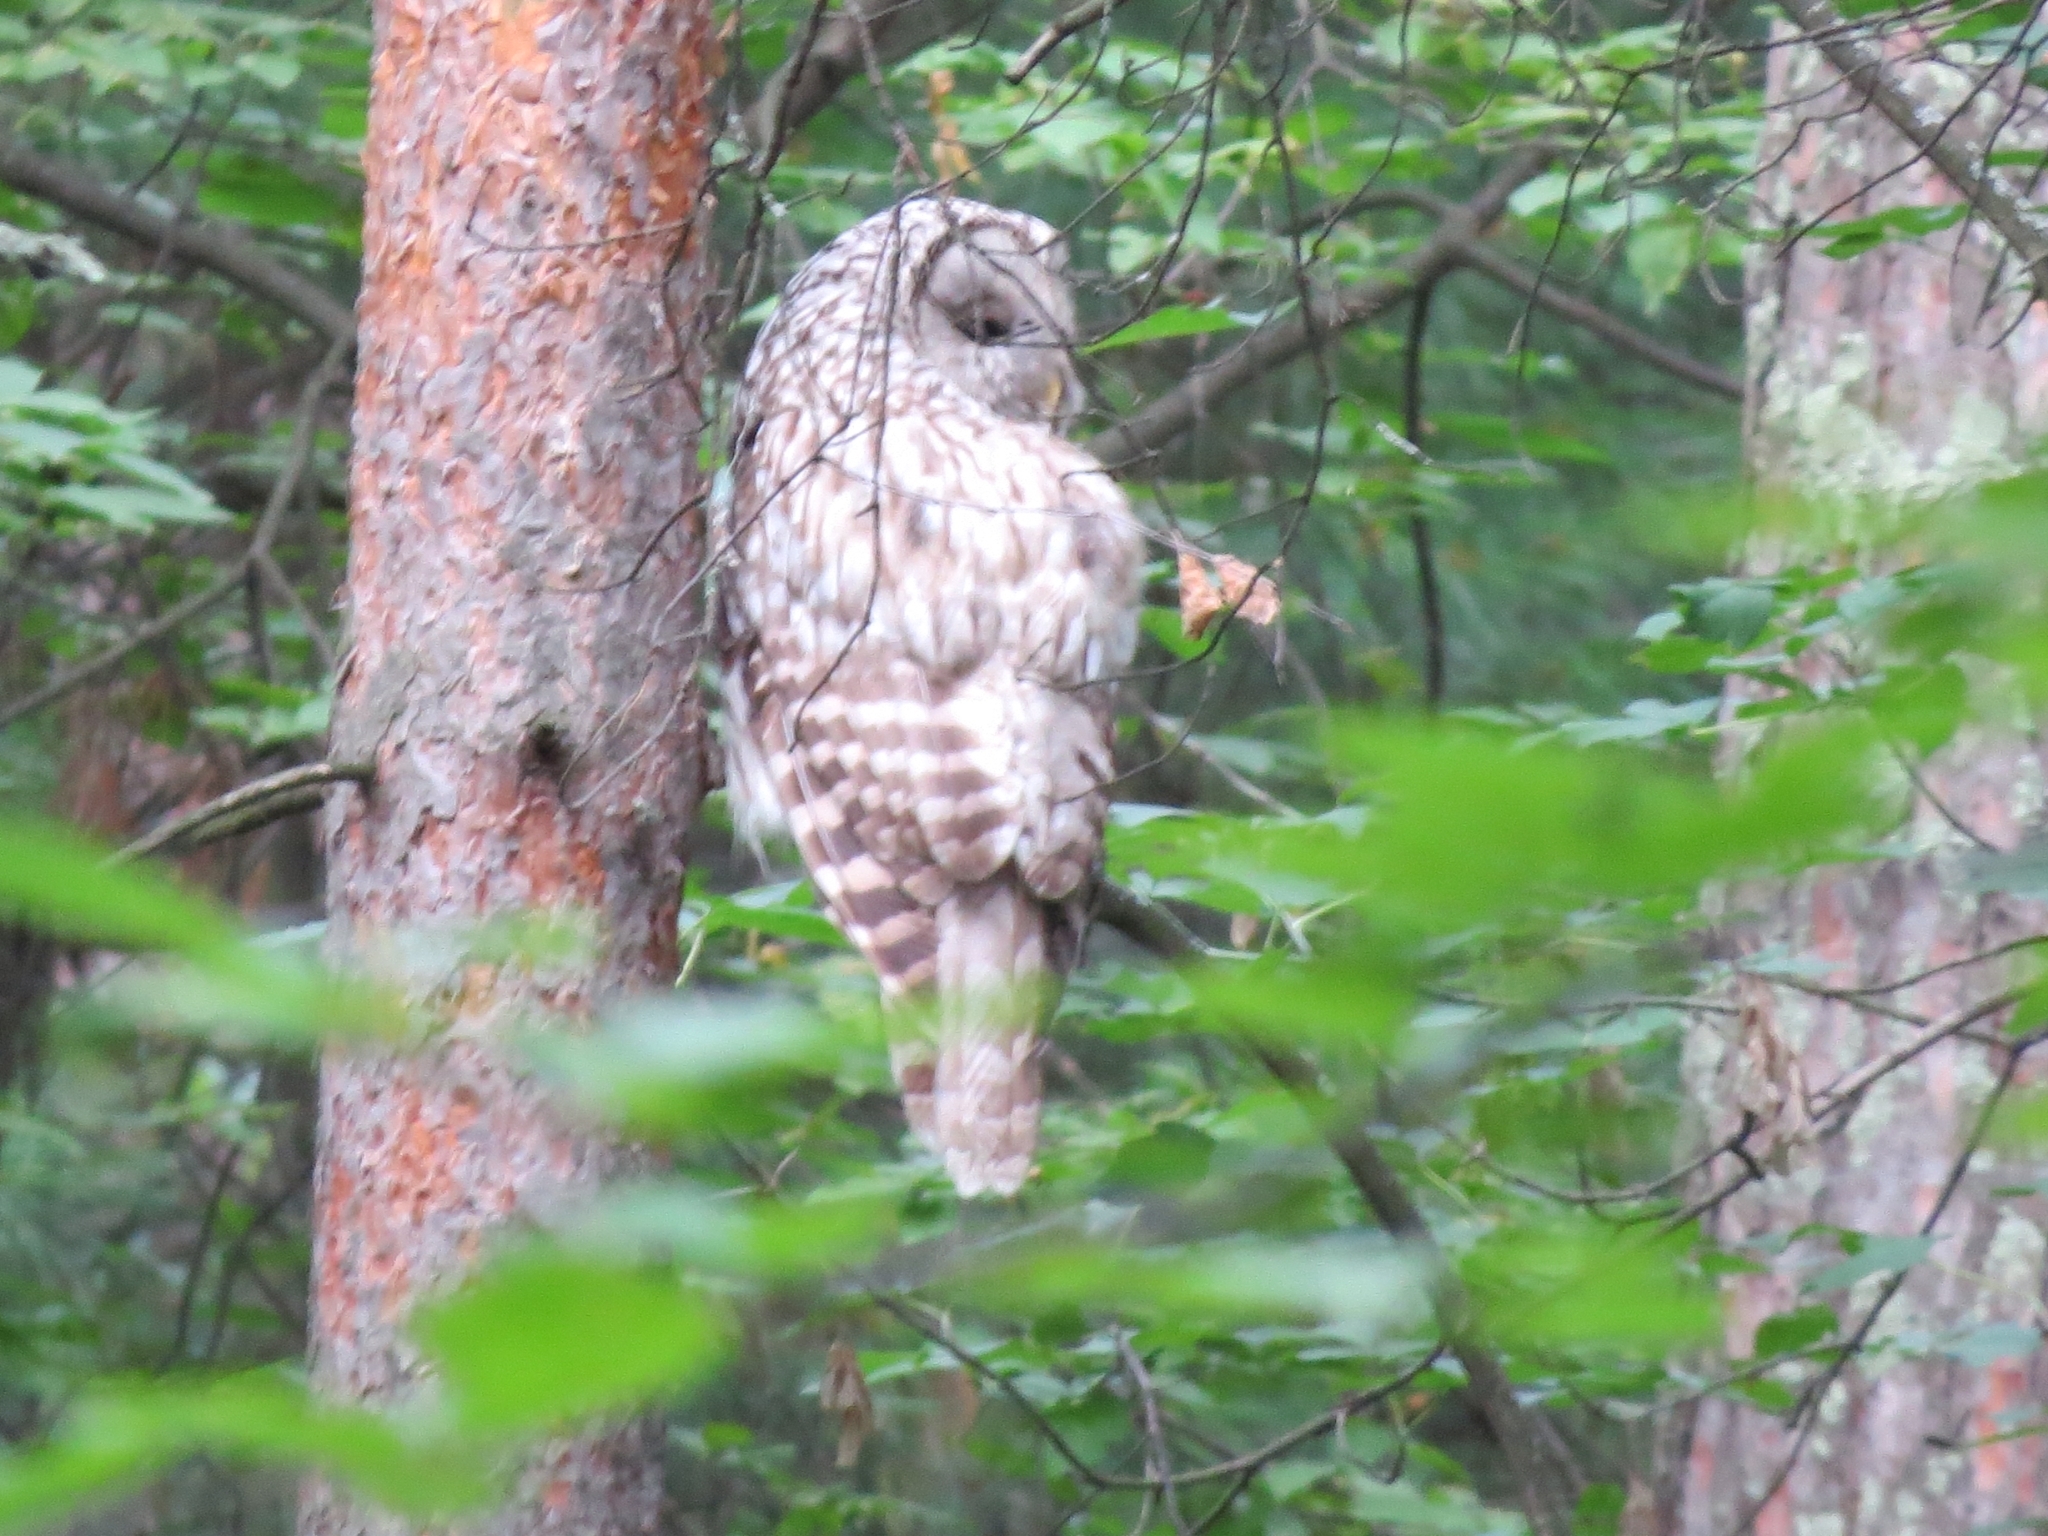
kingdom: Animalia
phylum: Chordata
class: Aves
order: Strigiformes
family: Strigidae
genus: Strix
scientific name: Strix uralensis
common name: Ural owl
